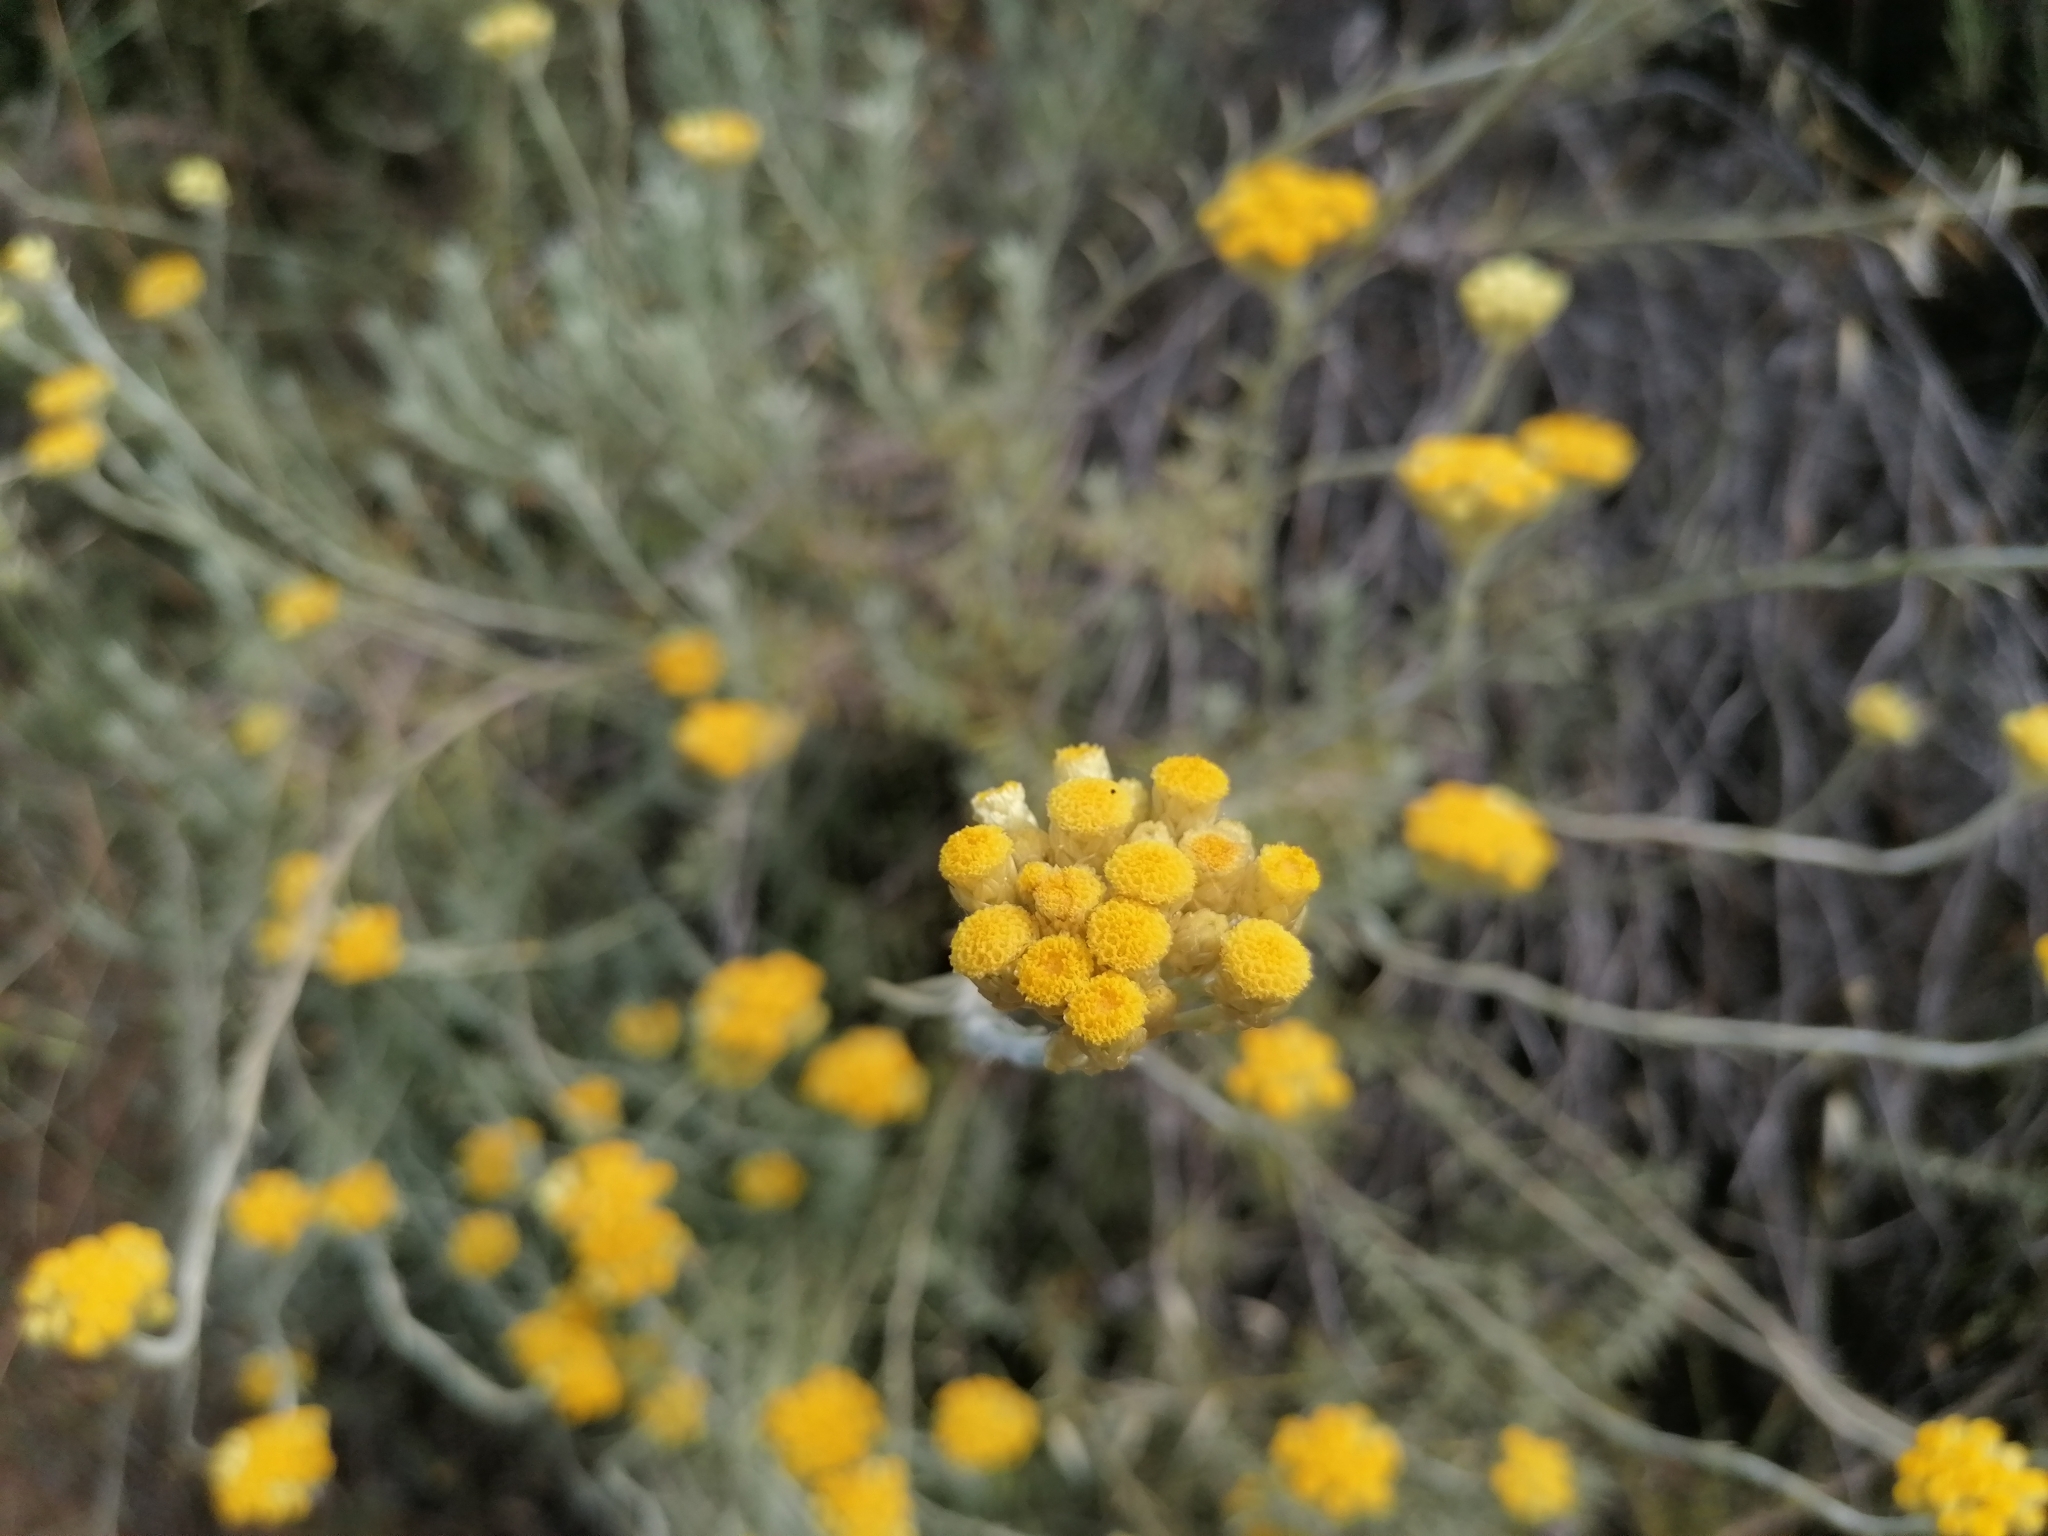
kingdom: Plantae
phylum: Tracheophyta
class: Magnoliopsida
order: Asterales
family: Asteraceae
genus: Helichrysum
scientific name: Helichrysum stoechas
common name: Goldilocks
